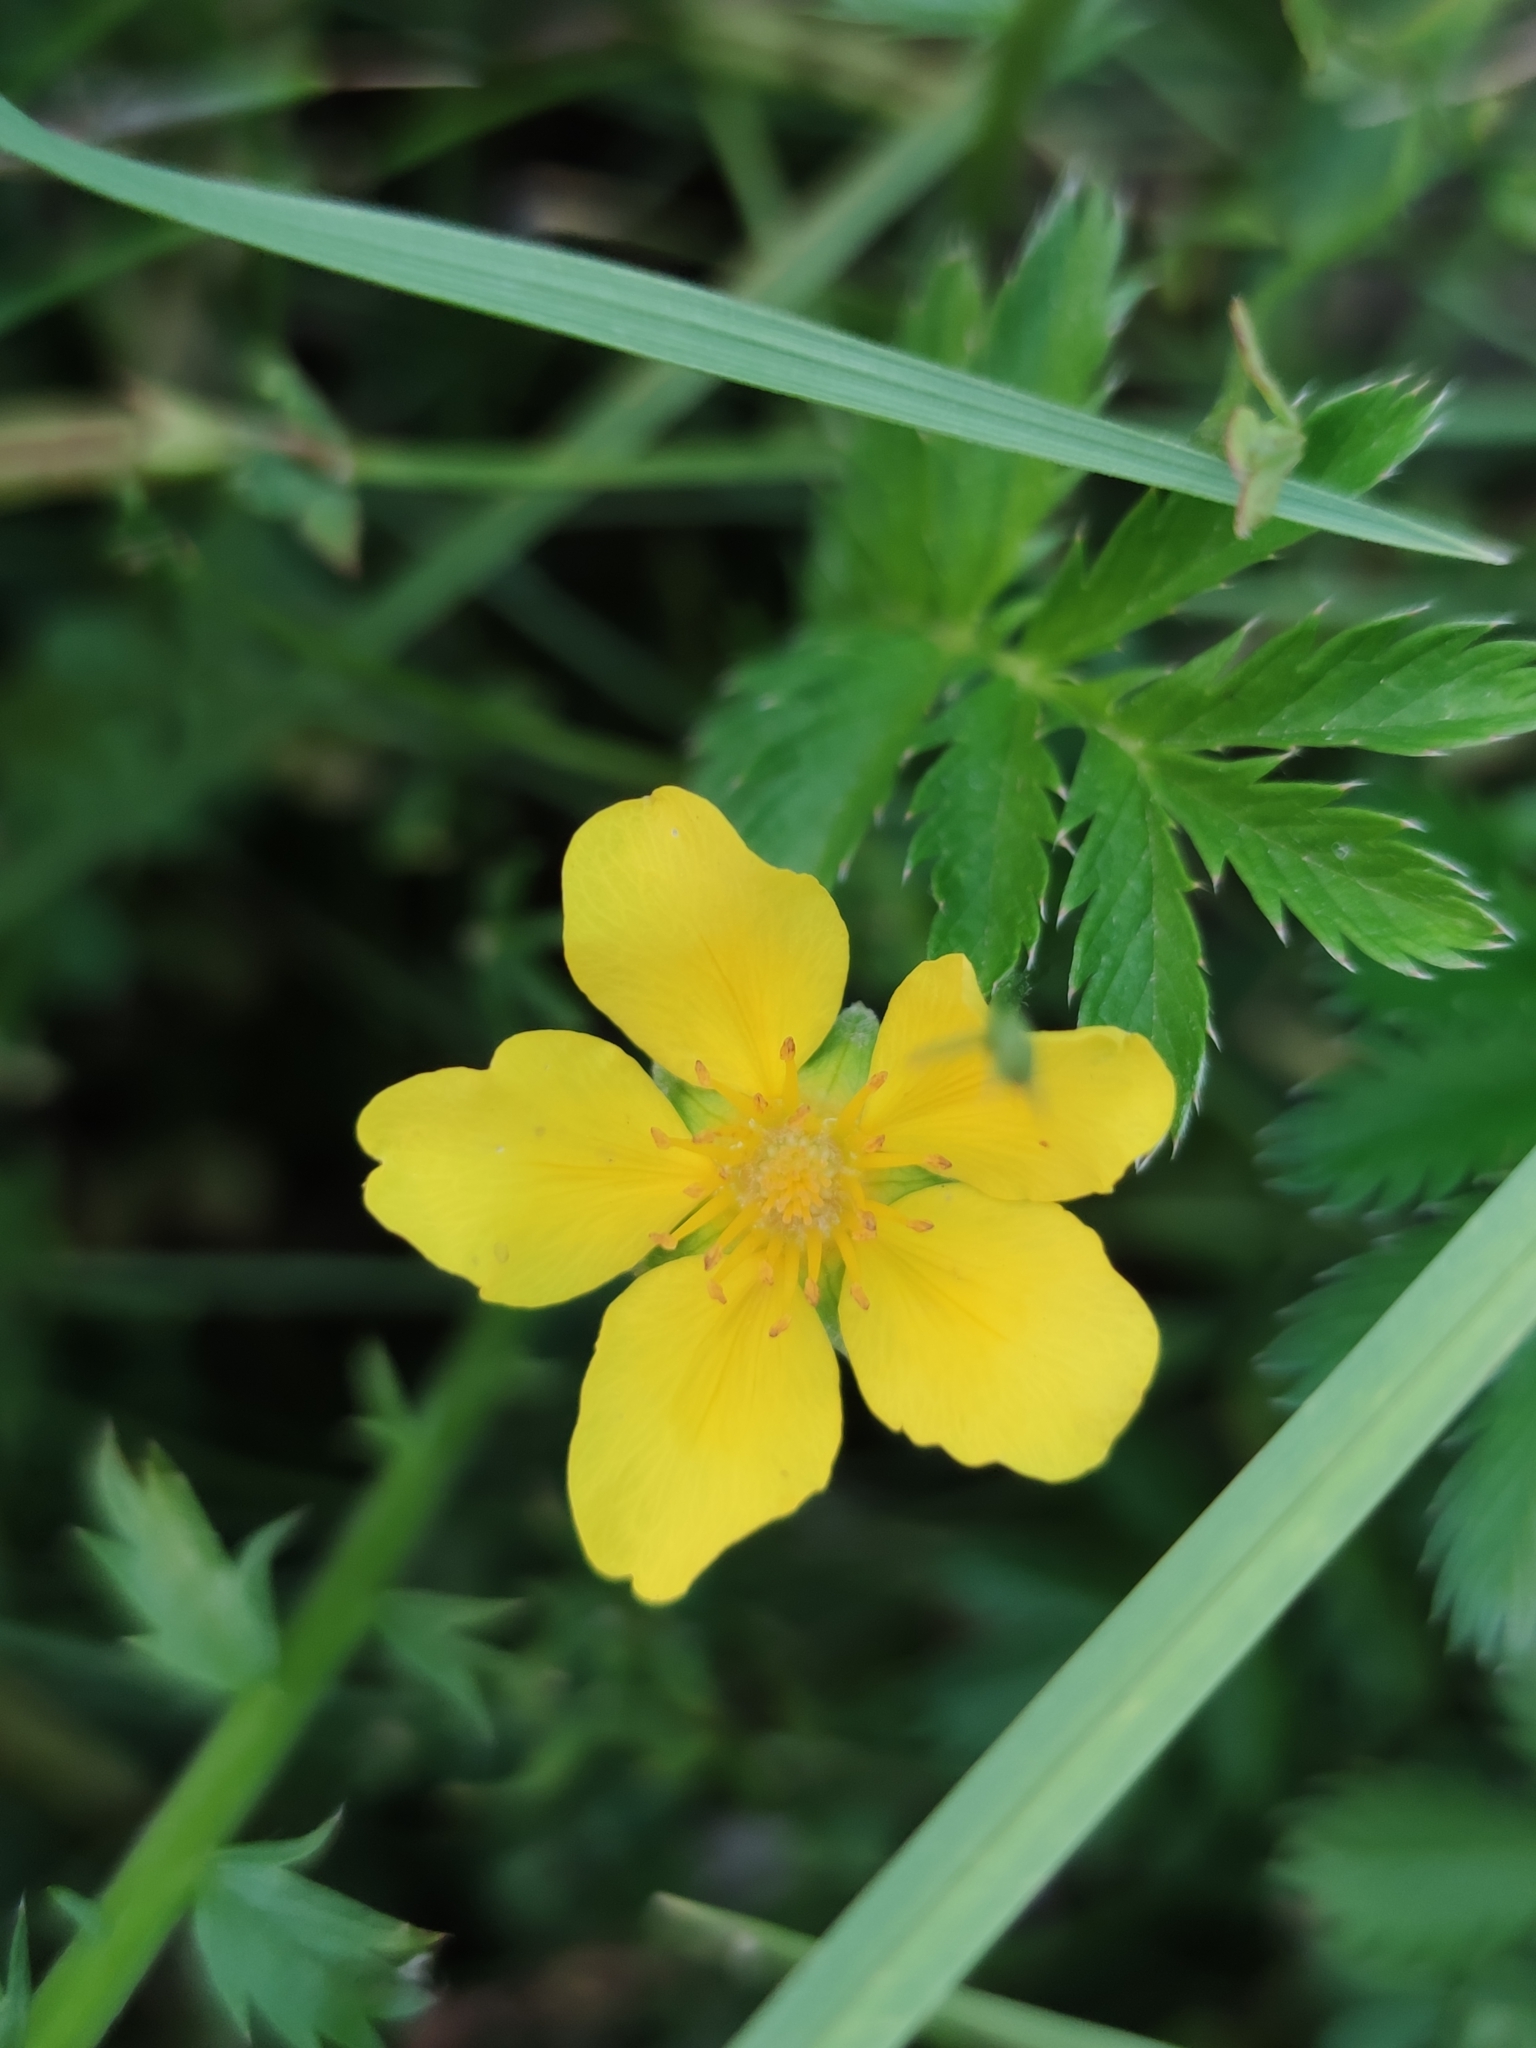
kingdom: Plantae
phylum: Tracheophyta
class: Magnoliopsida
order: Rosales
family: Rosaceae
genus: Argentina
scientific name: Argentina anserina
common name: Common silverweed
